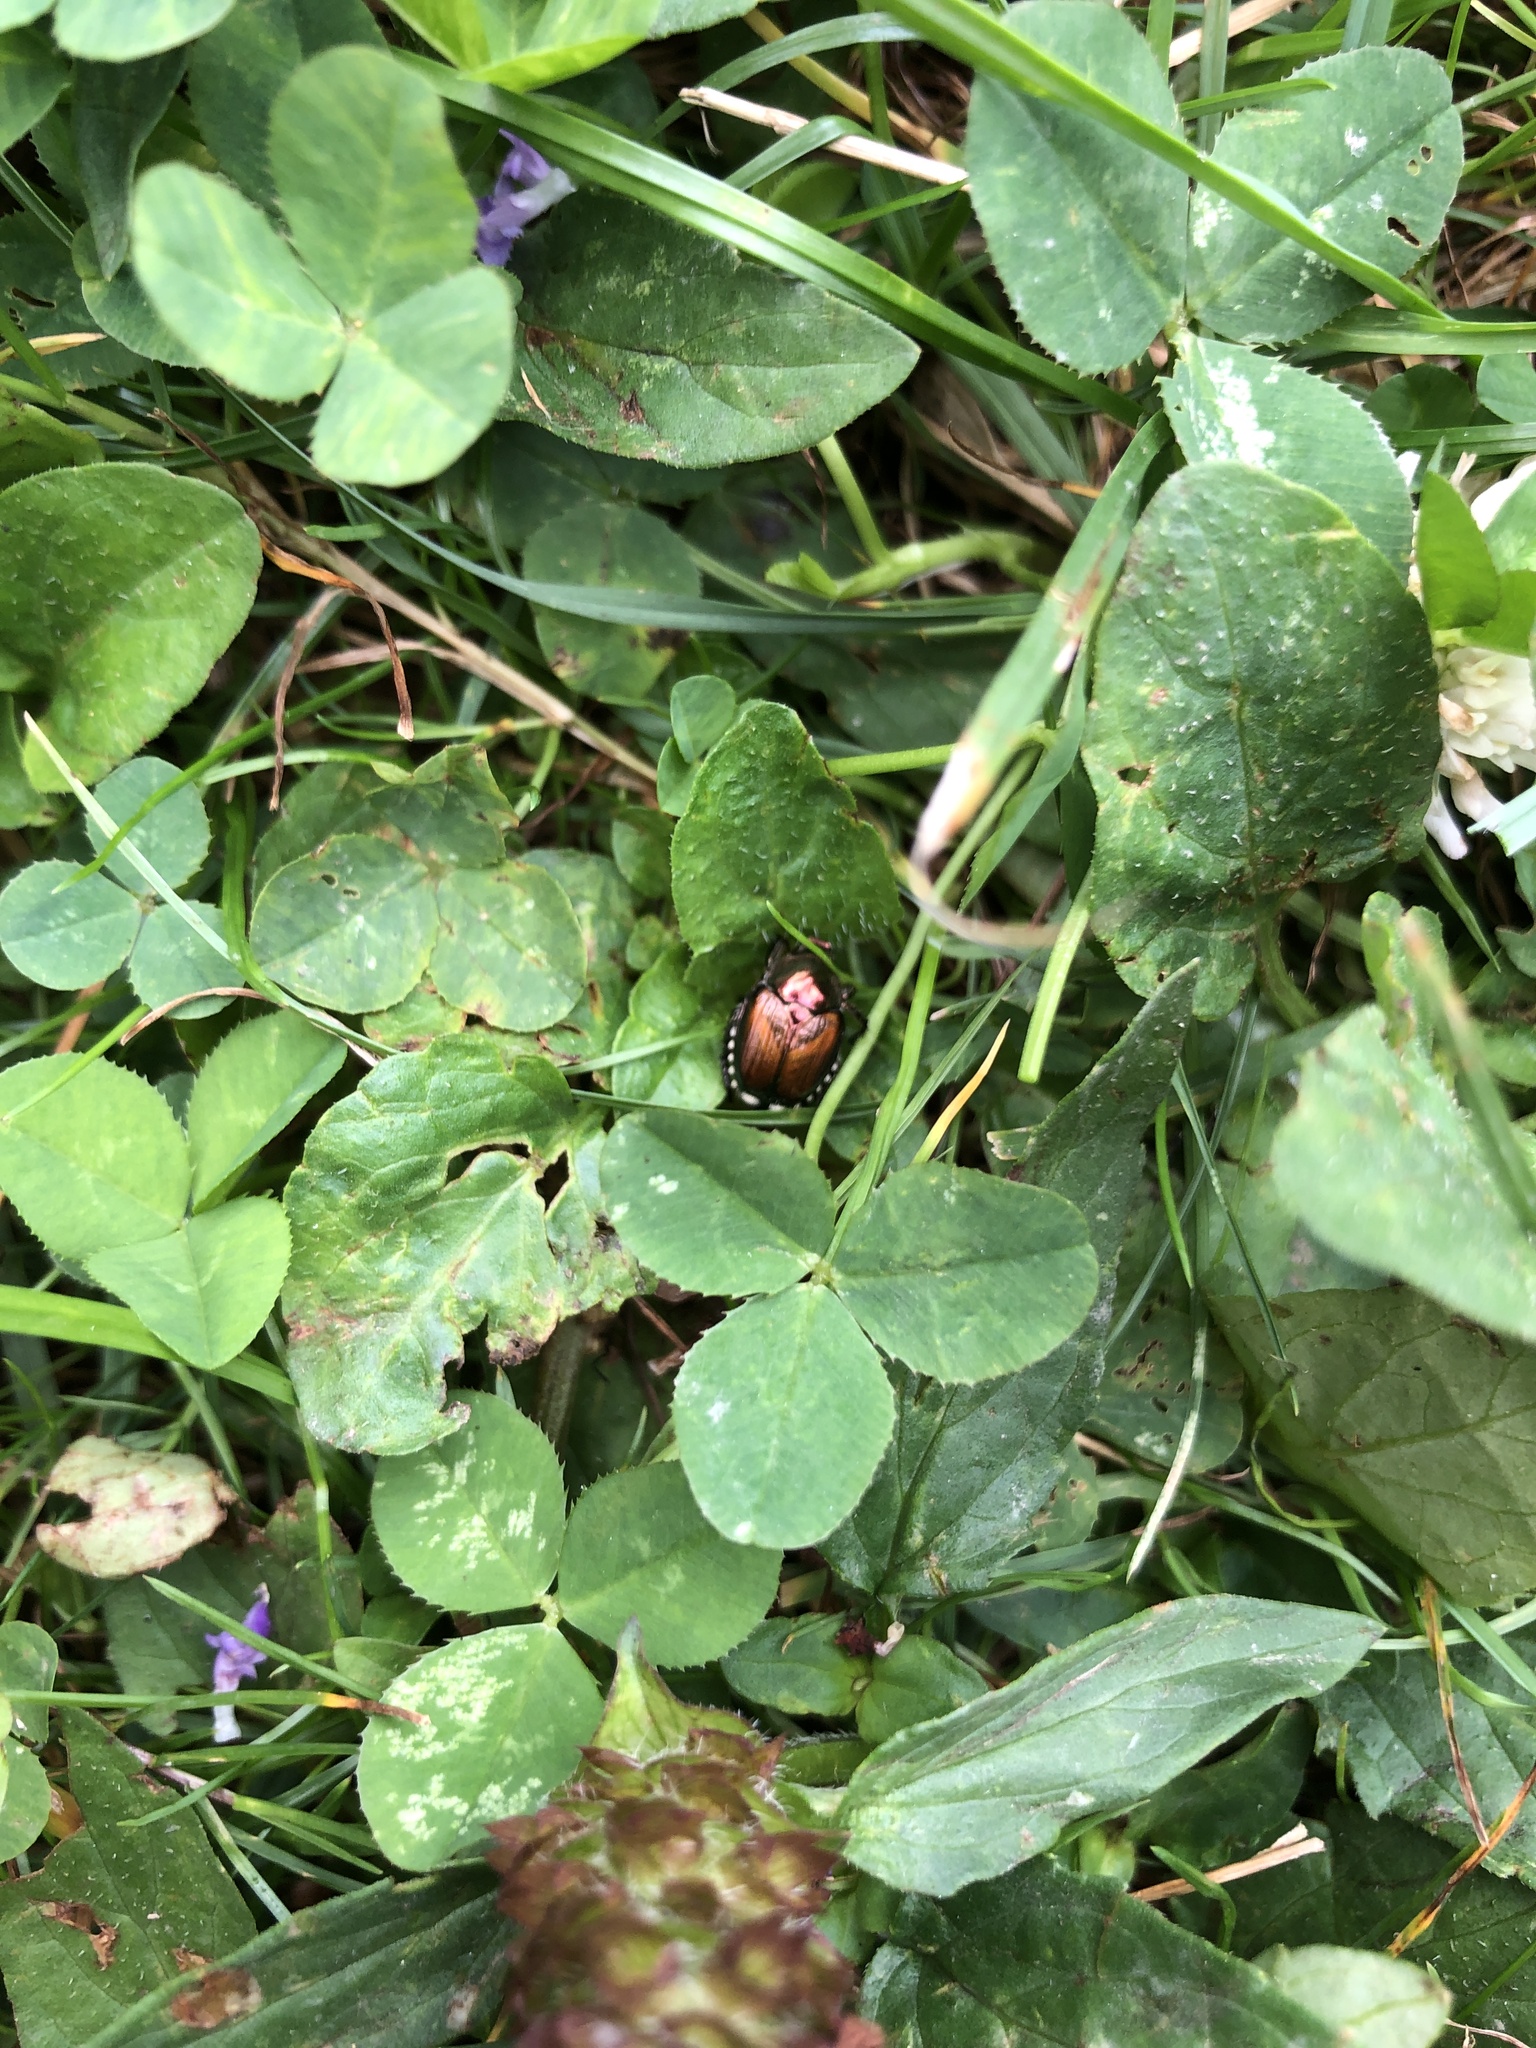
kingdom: Animalia
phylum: Arthropoda
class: Insecta
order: Coleoptera
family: Scarabaeidae
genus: Popillia
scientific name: Popillia japonica
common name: Japanese beetle
